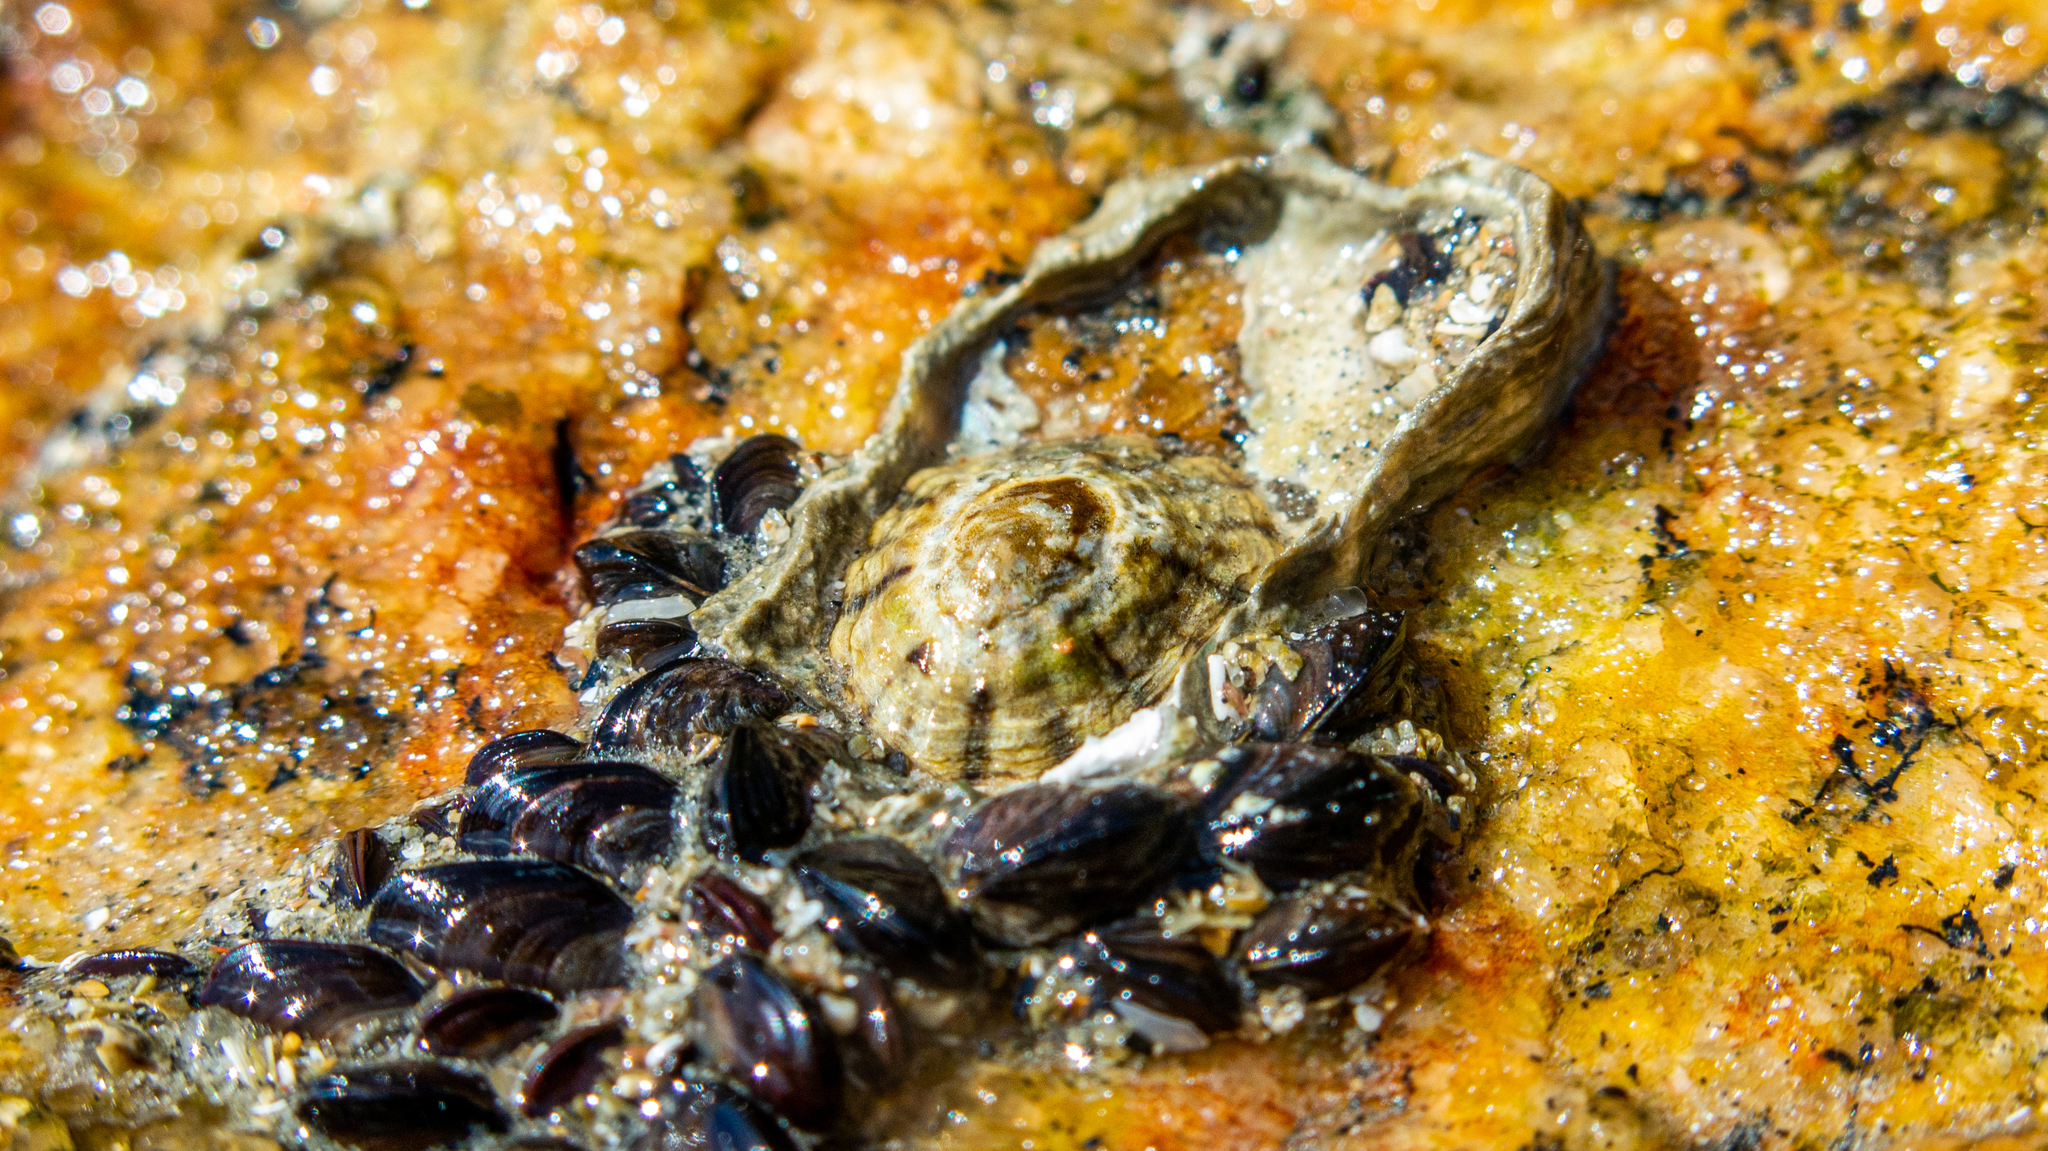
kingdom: Animalia
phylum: Mollusca
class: Gastropoda
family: Lottiidae
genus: Lottia
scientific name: Lottia subrugosa
